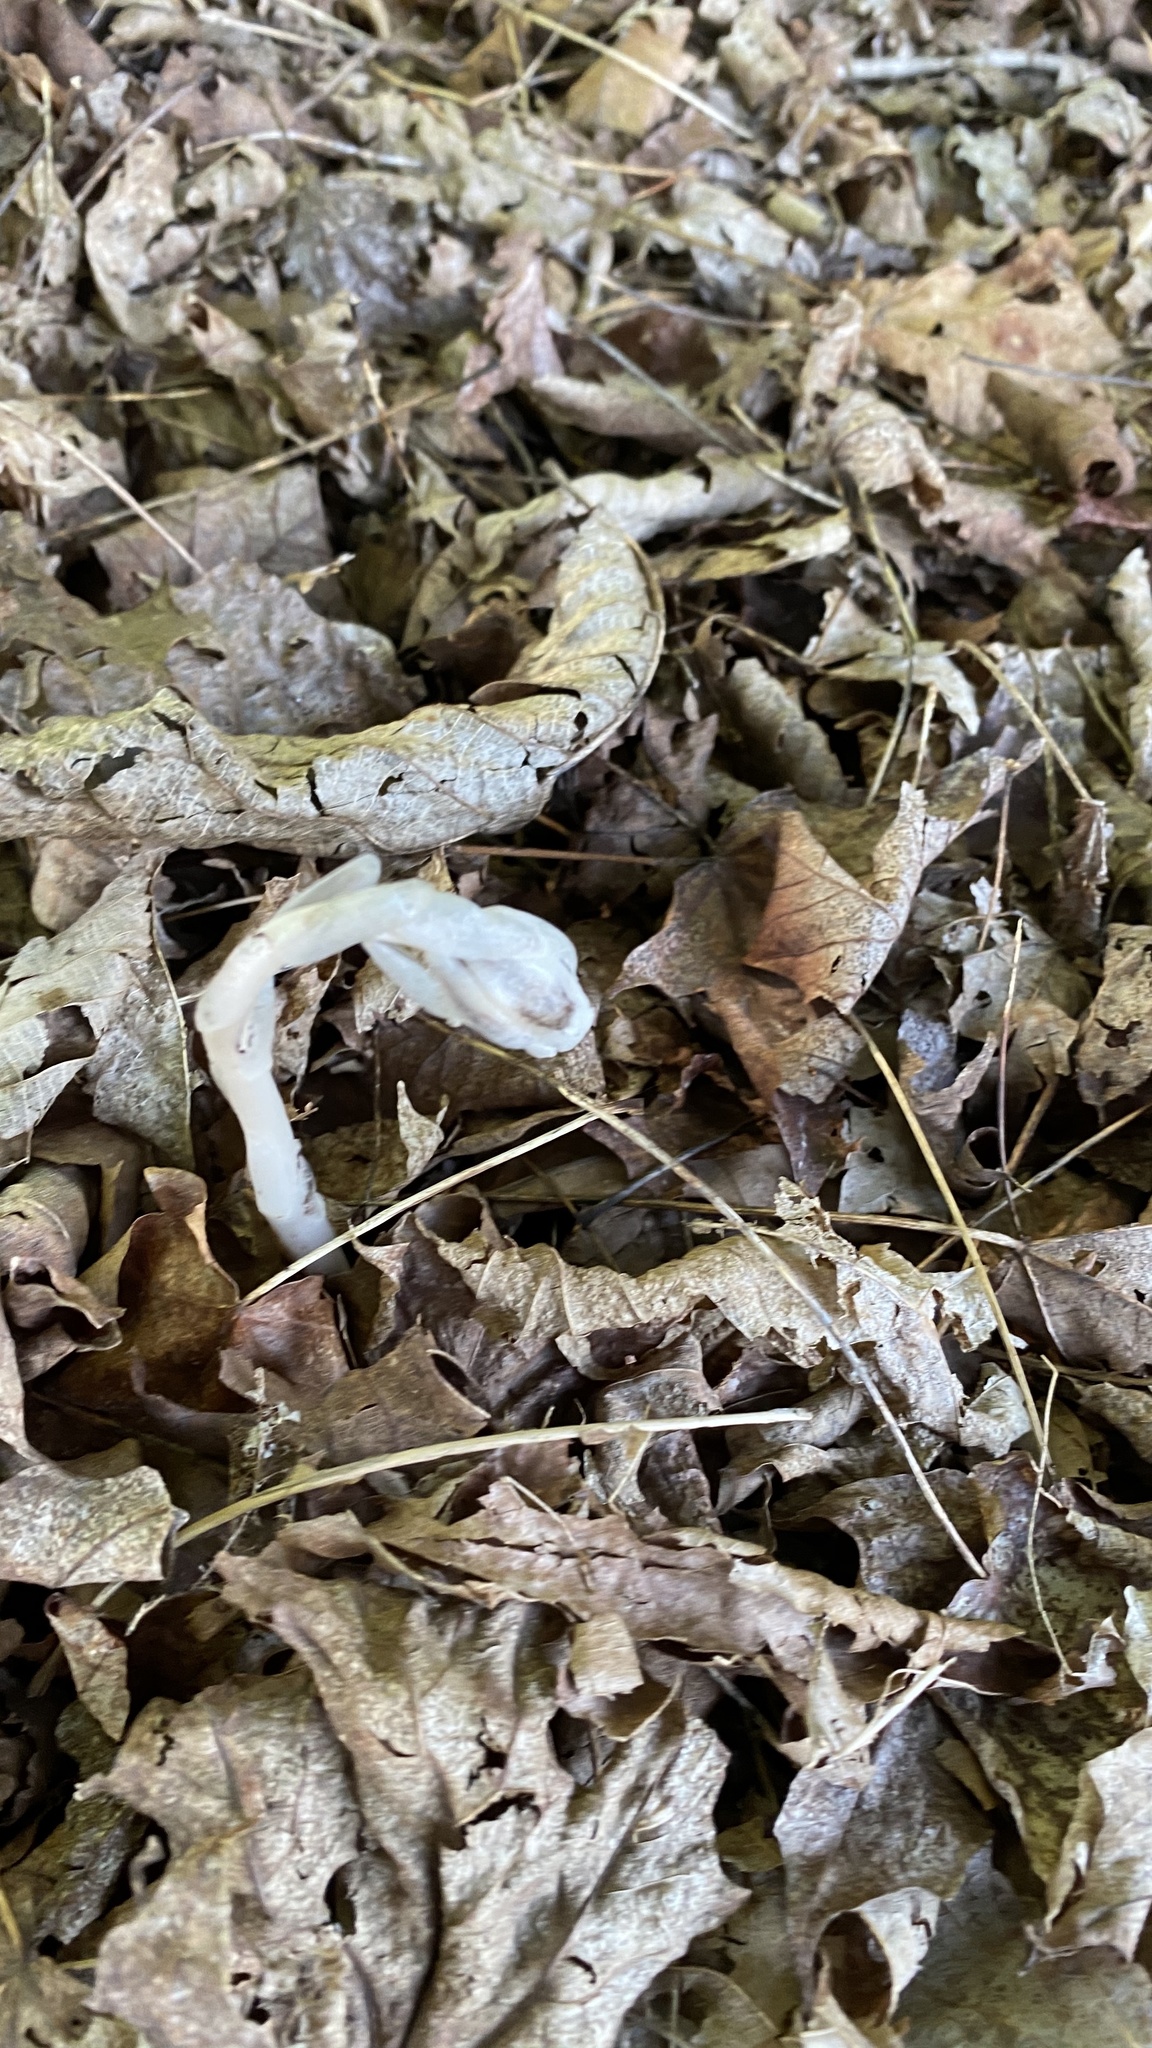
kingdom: Plantae
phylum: Tracheophyta
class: Magnoliopsida
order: Ericales
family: Ericaceae
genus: Monotropa
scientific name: Monotropa uniflora
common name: Convulsion root
